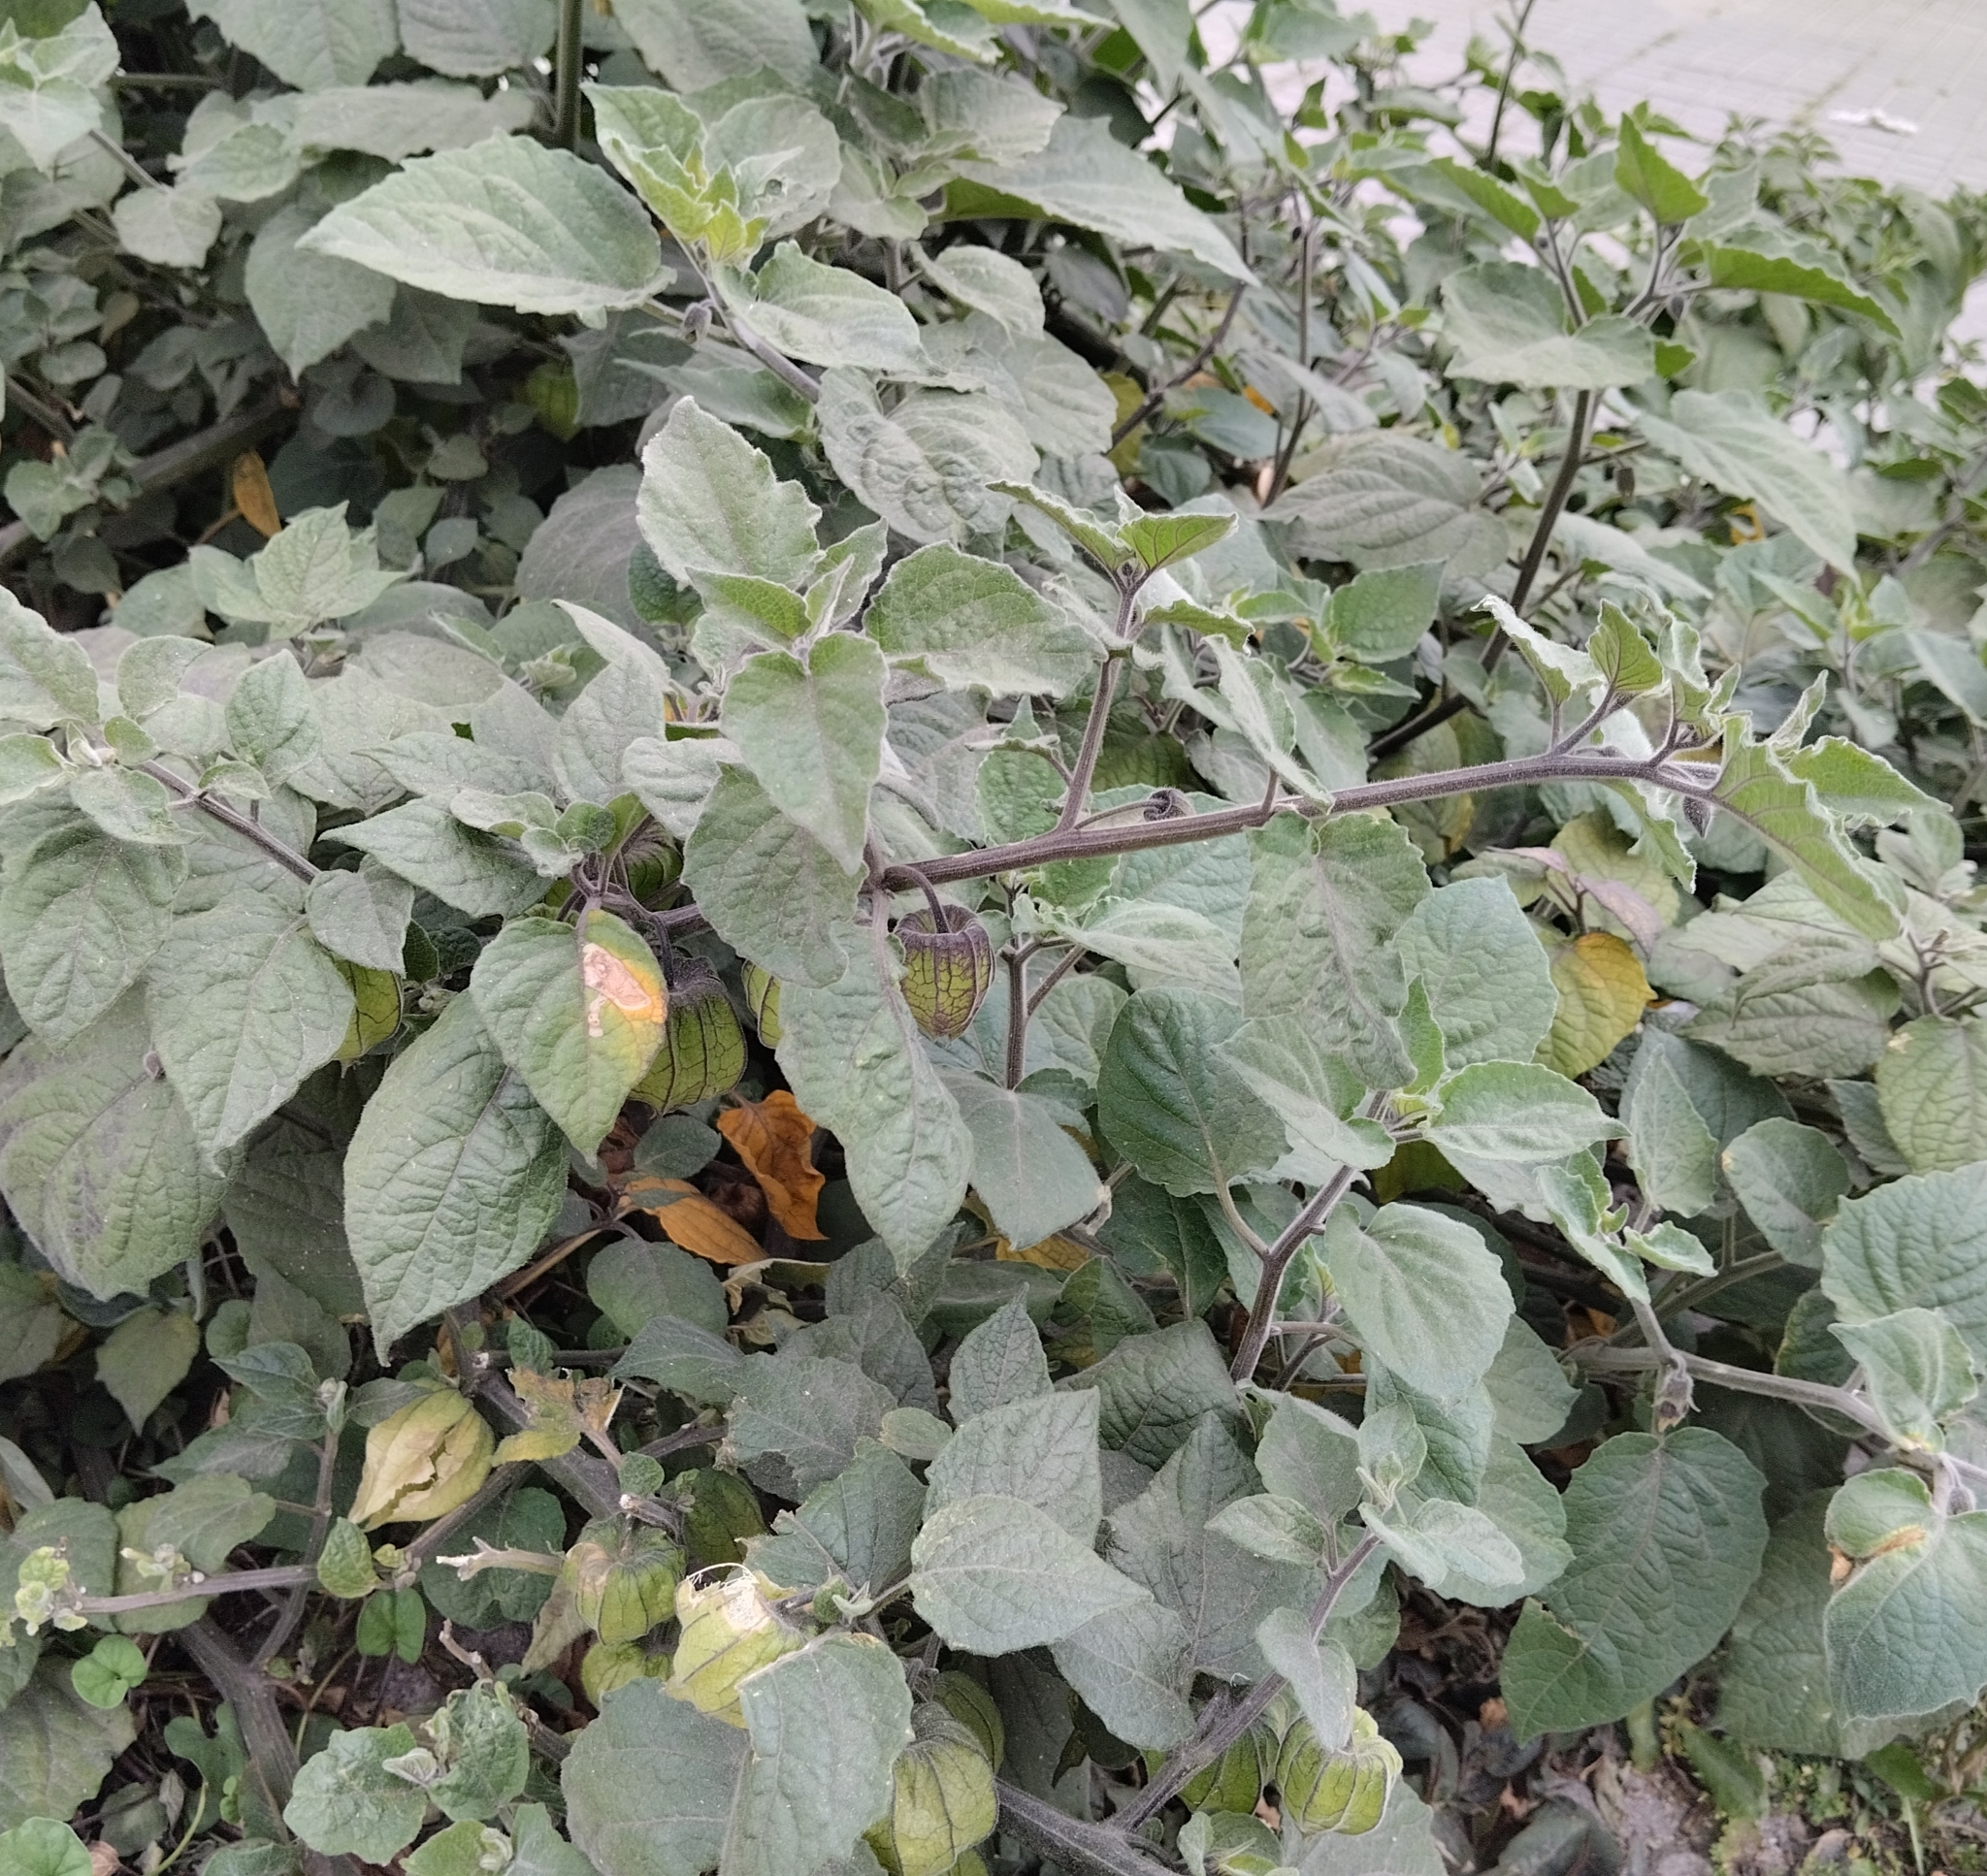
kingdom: Plantae
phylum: Tracheophyta
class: Magnoliopsida
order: Solanales
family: Solanaceae
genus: Physalis
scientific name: Physalis peruviana
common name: Cape-gooseberry
